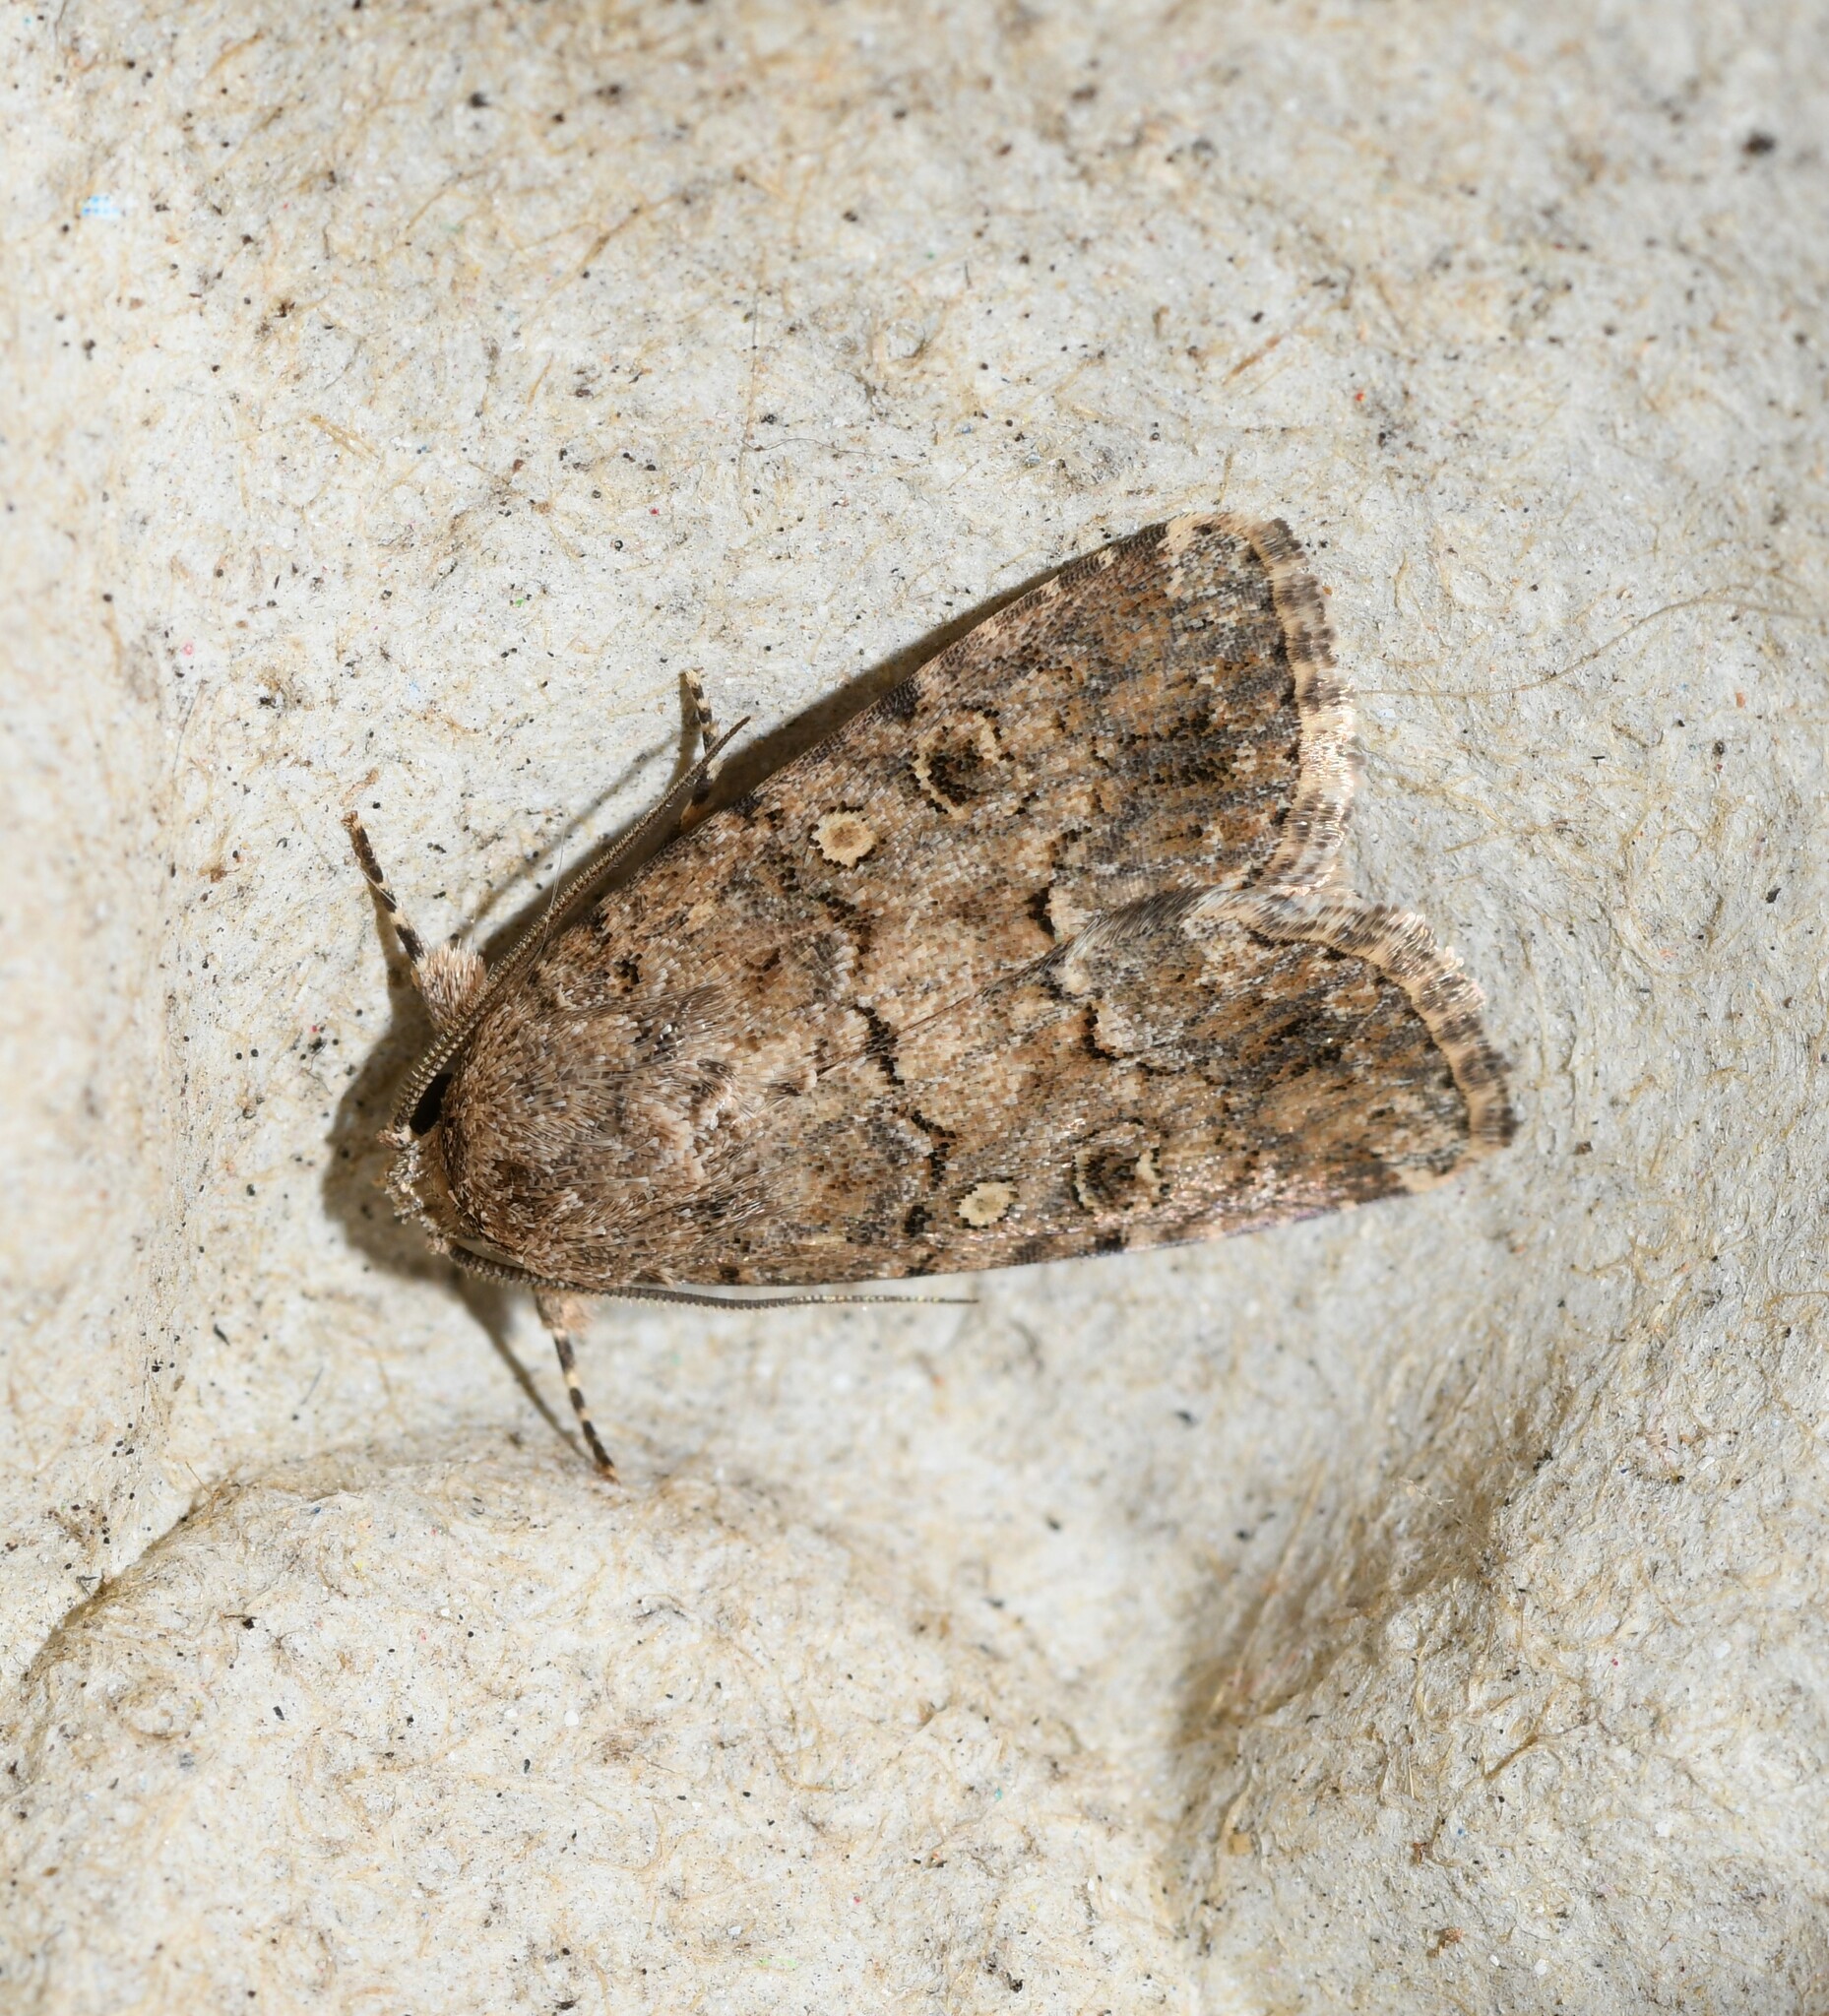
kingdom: Animalia
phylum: Arthropoda
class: Insecta
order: Lepidoptera
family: Noctuidae
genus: Spodoptera
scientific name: Spodoptera cilium
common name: Dark mottled willow
